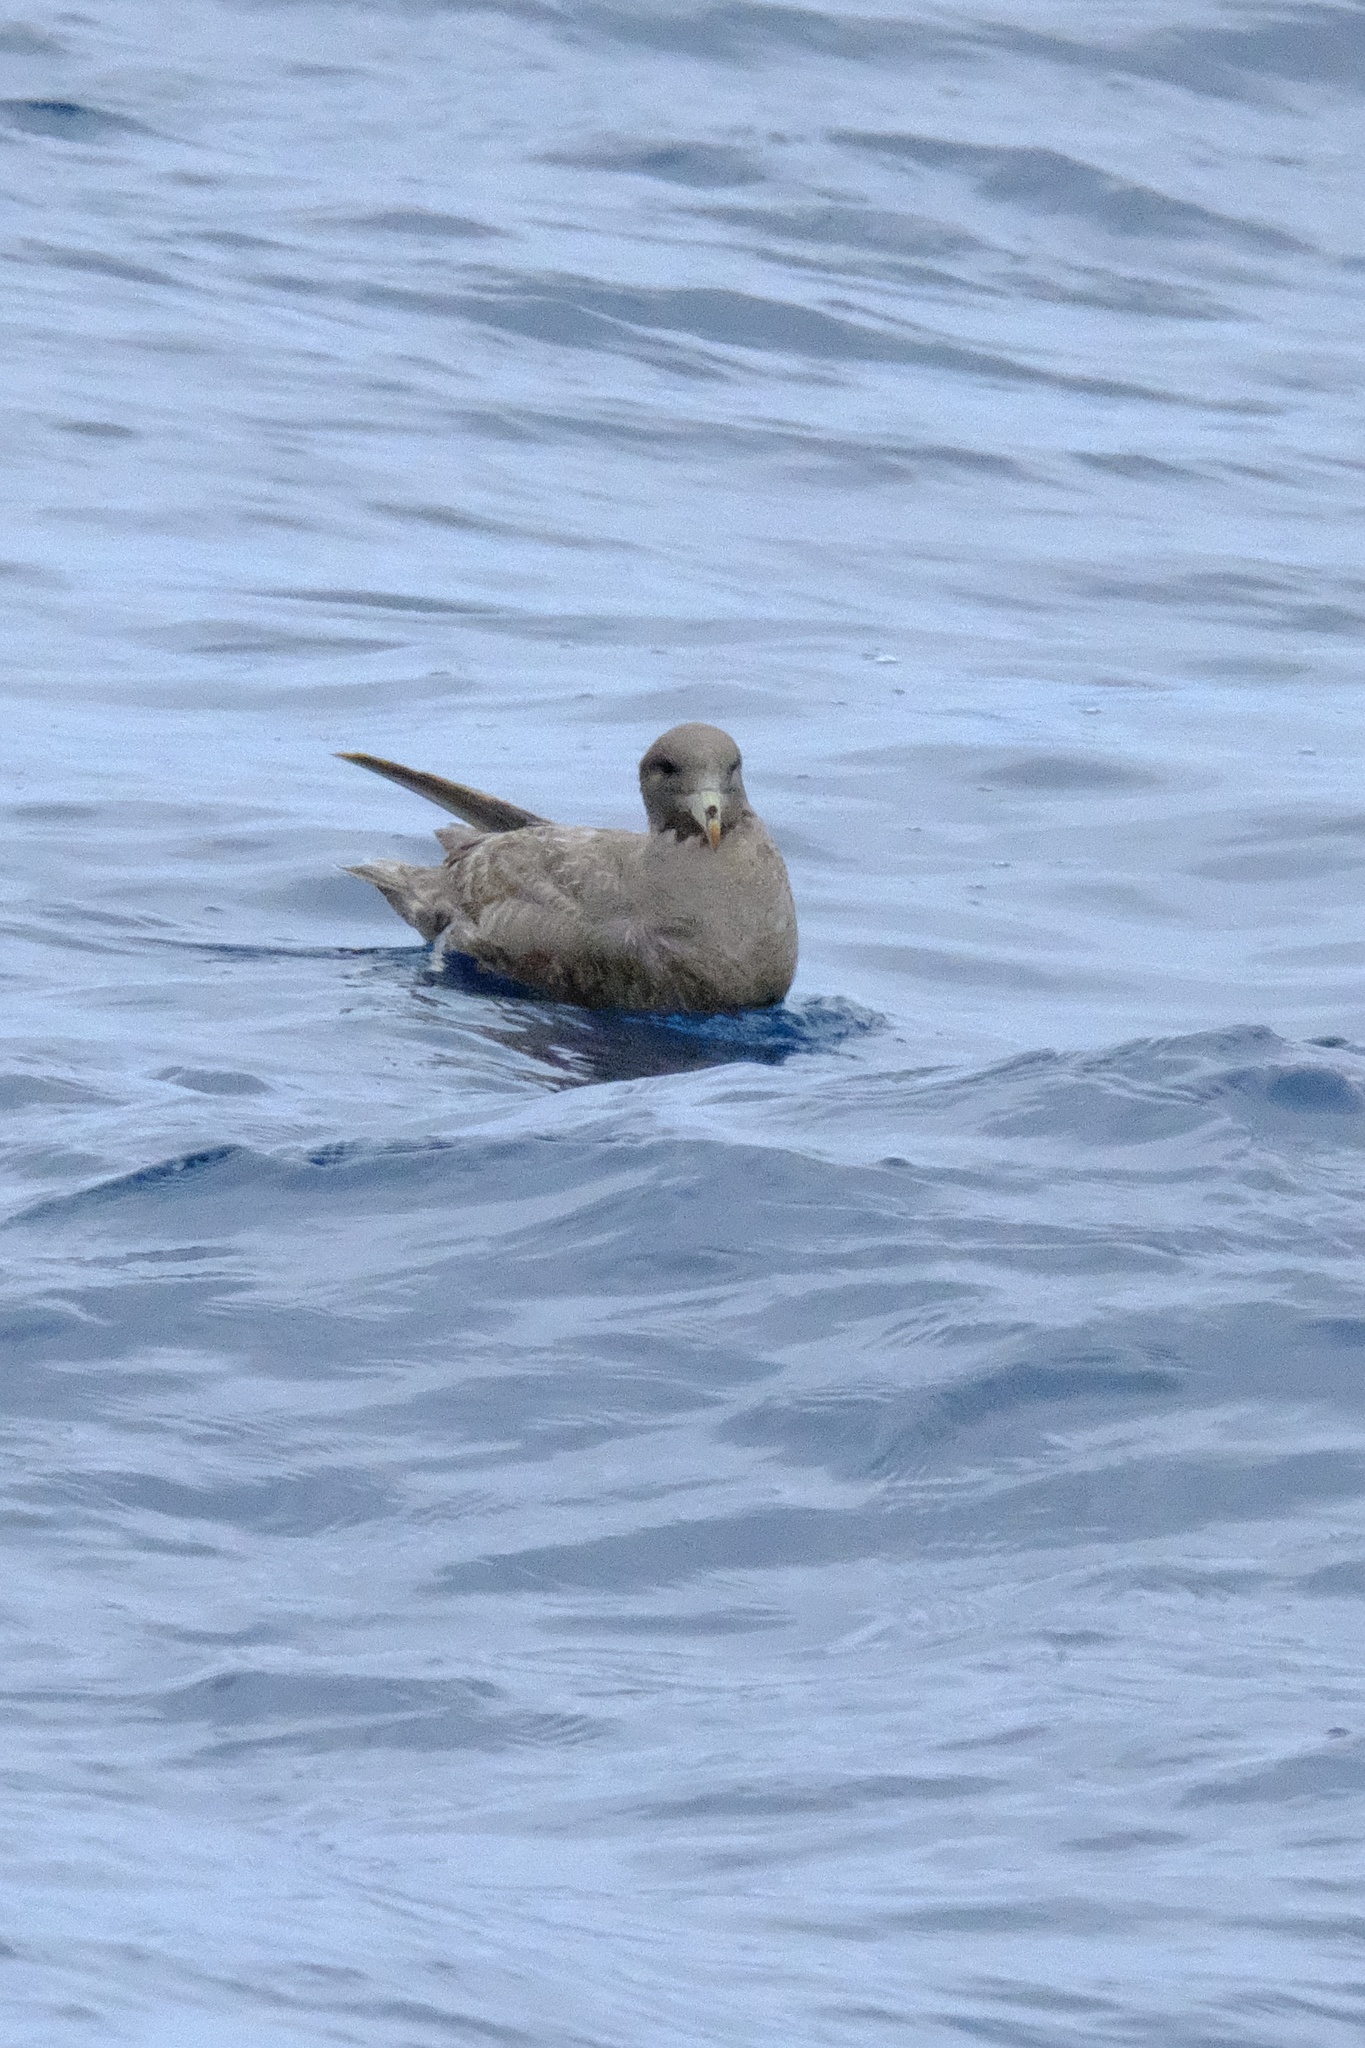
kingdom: Animalia
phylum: Chordata
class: Aves
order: Procellariiformes
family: Procellariidae
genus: Fulmarus
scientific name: Fulmarus glacialis
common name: Northern fulmar
